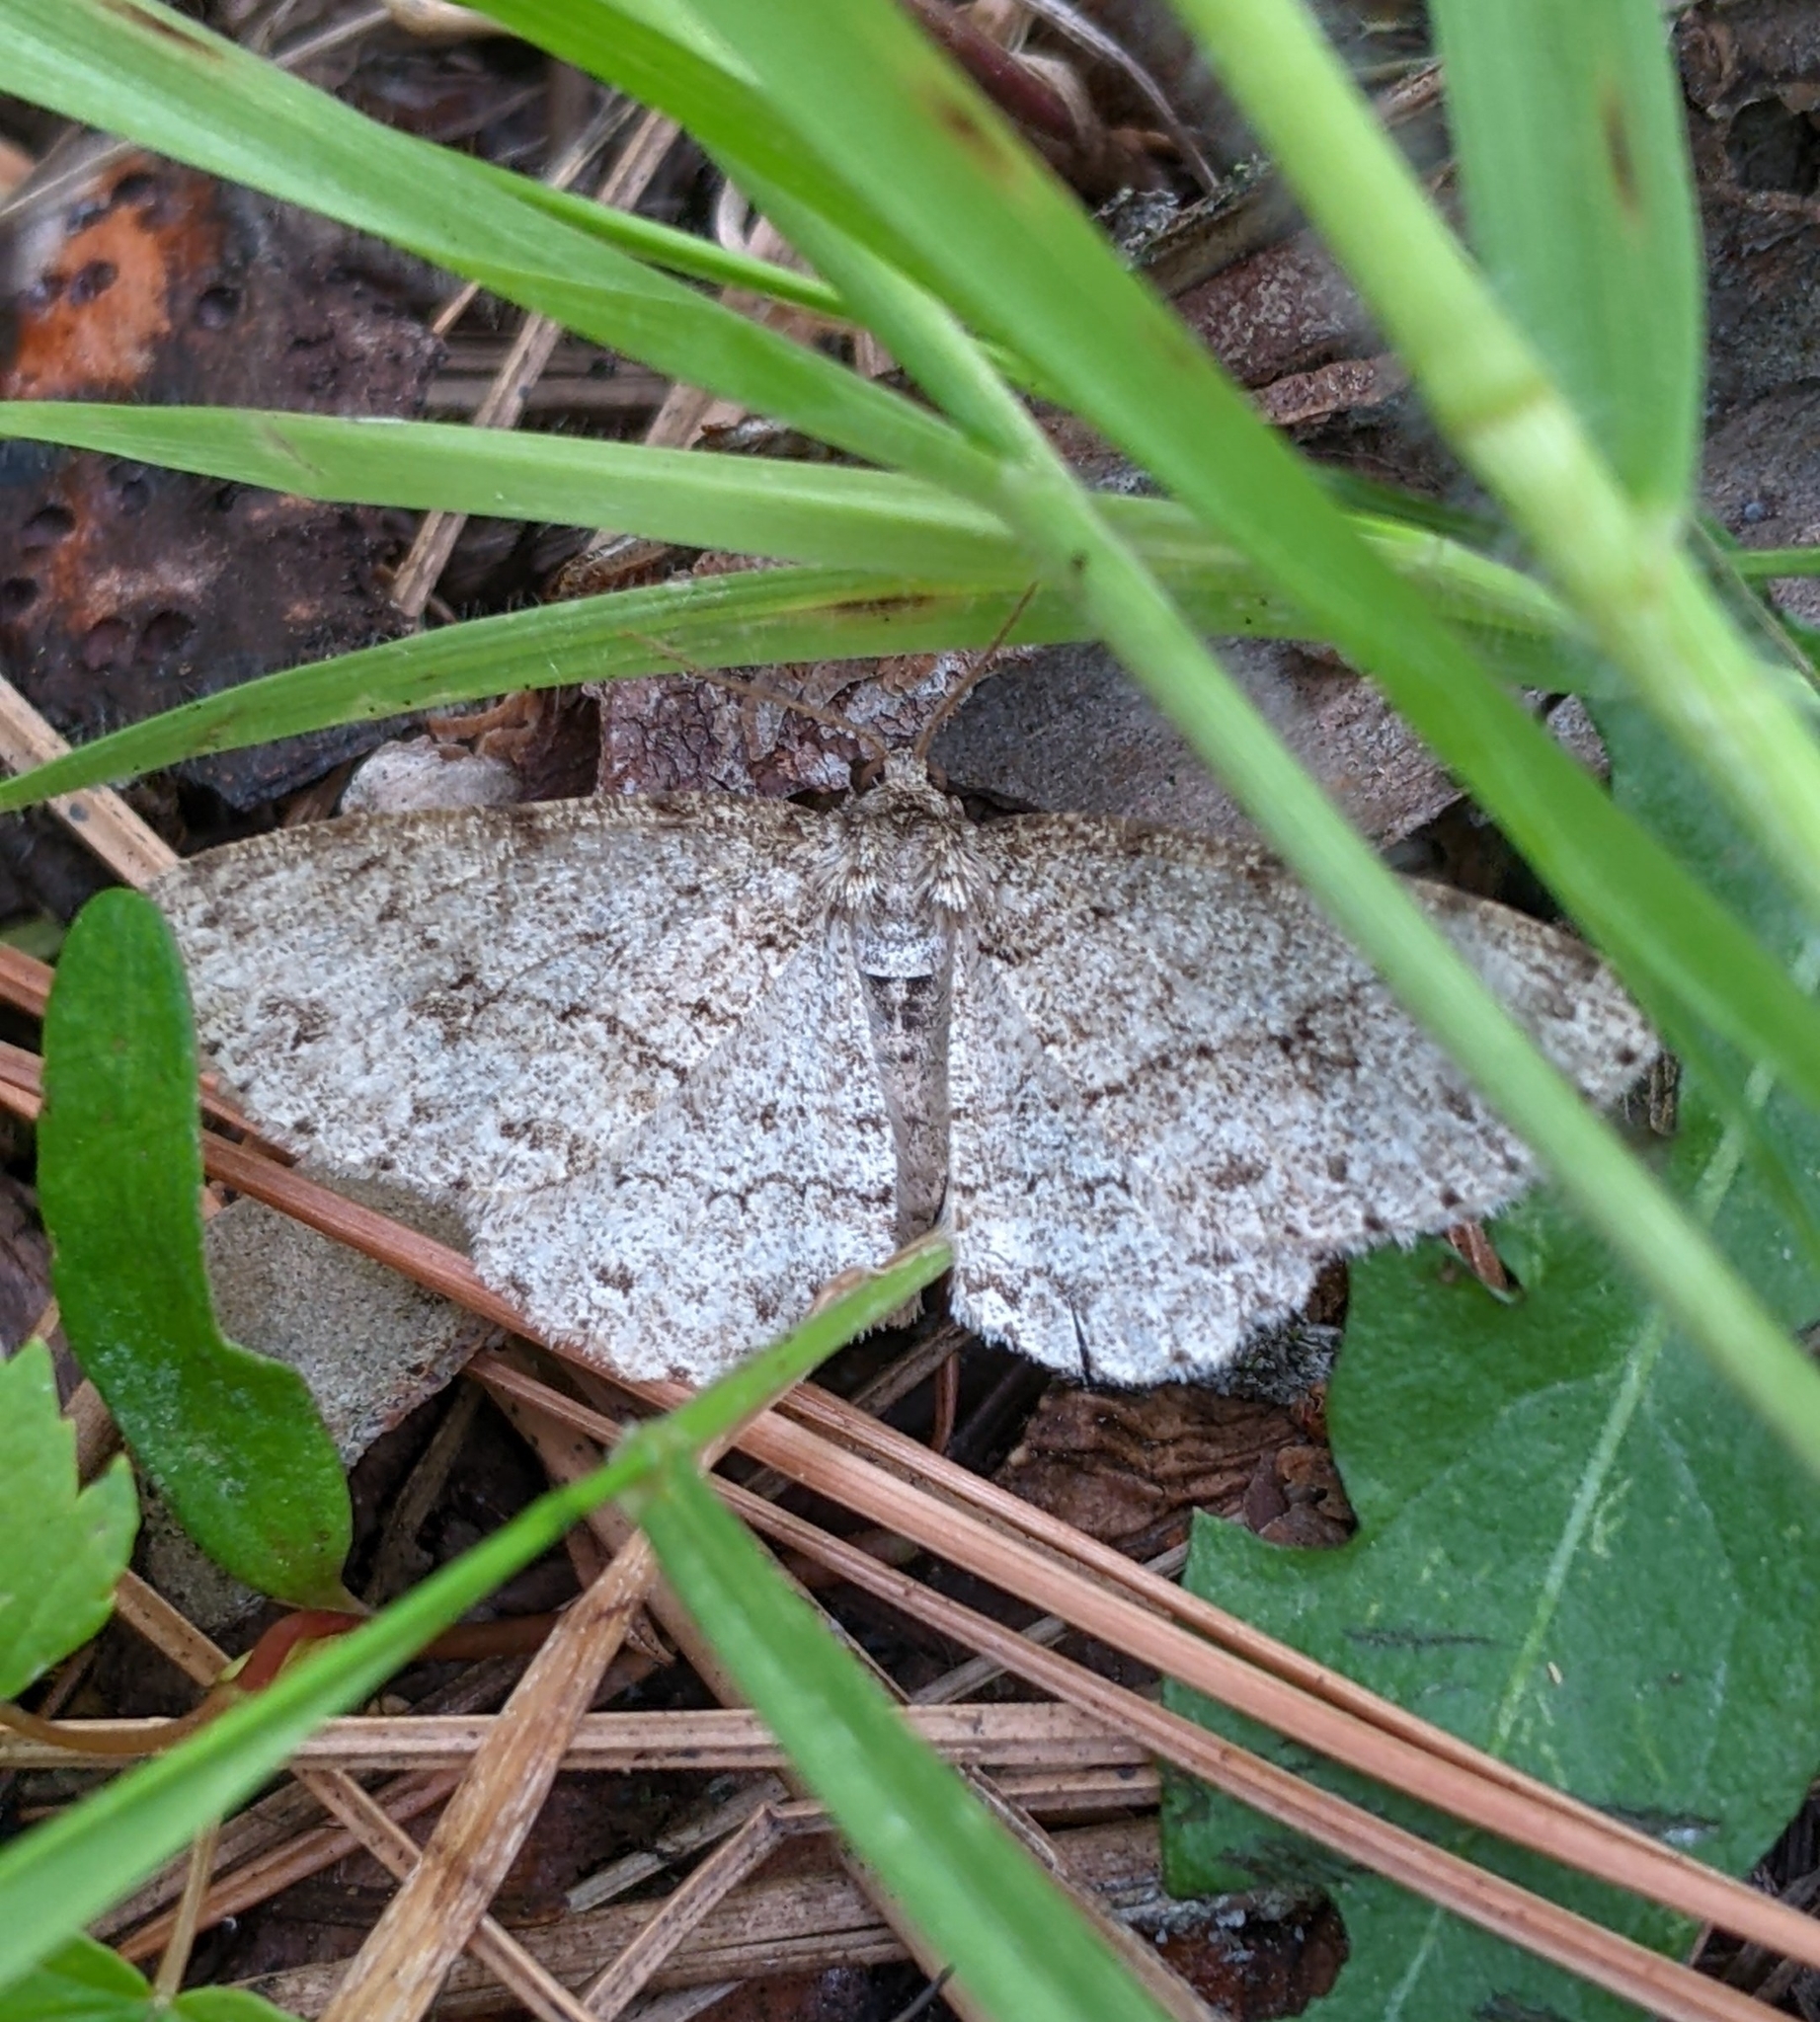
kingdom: Animalia
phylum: Arthropoda
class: Insecta
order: Lepidoptera
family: Geometridae
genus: Ectropis
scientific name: Ectropis crepuscularia
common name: Engrailed
